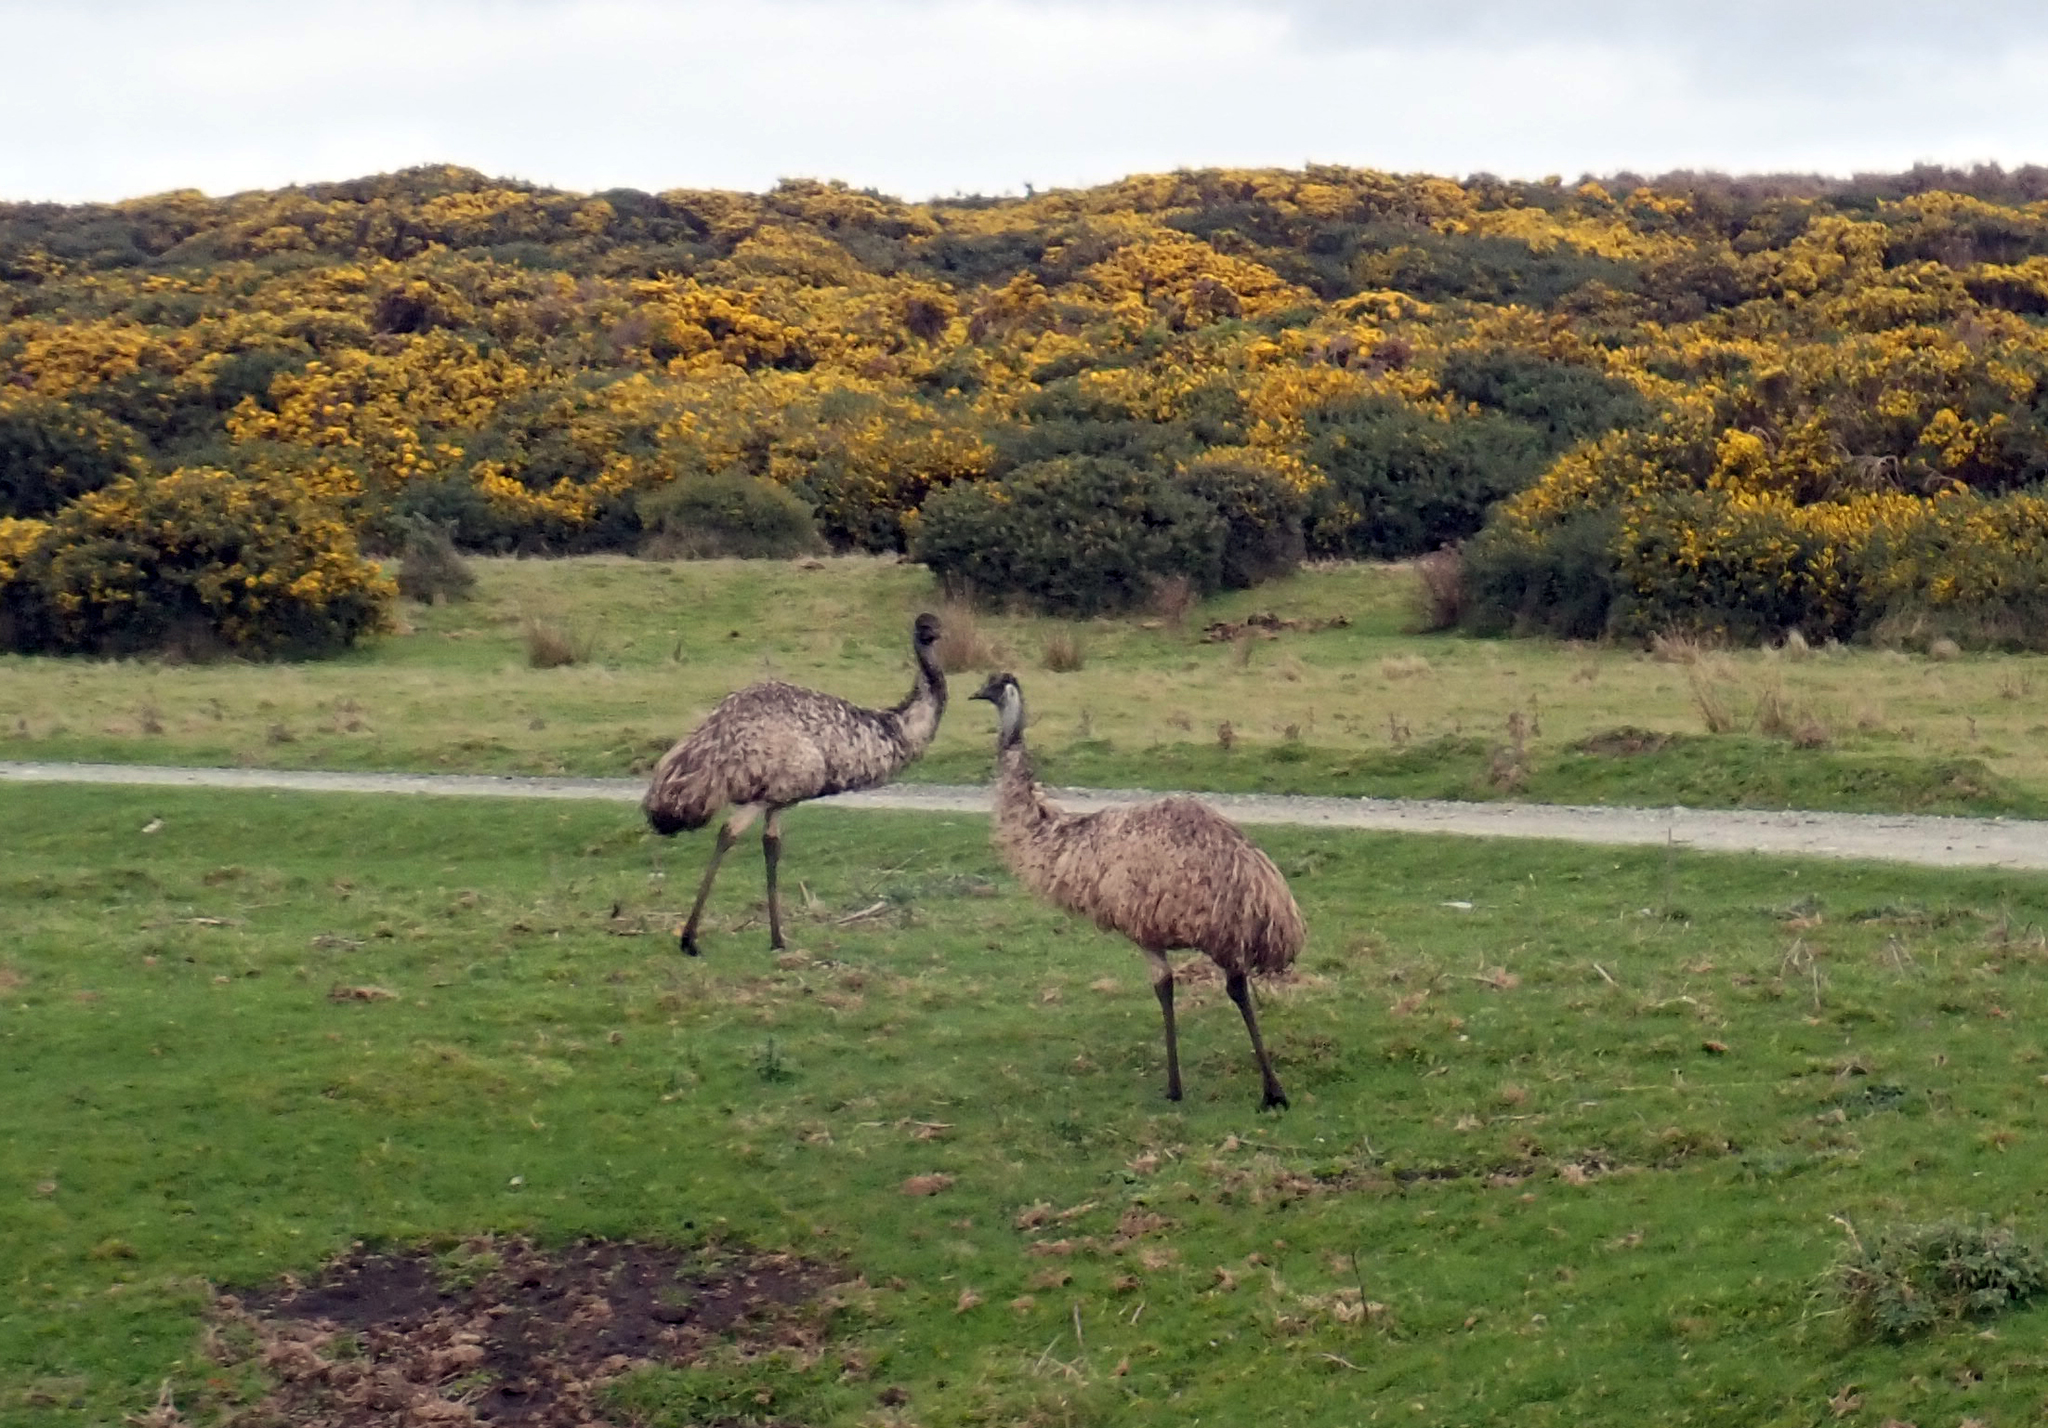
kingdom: Animalia
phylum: Chordata
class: Aves
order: Casuariiformes
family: Dromaiidae
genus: Dromaius
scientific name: Dromaius novaehollandiae
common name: Emu
